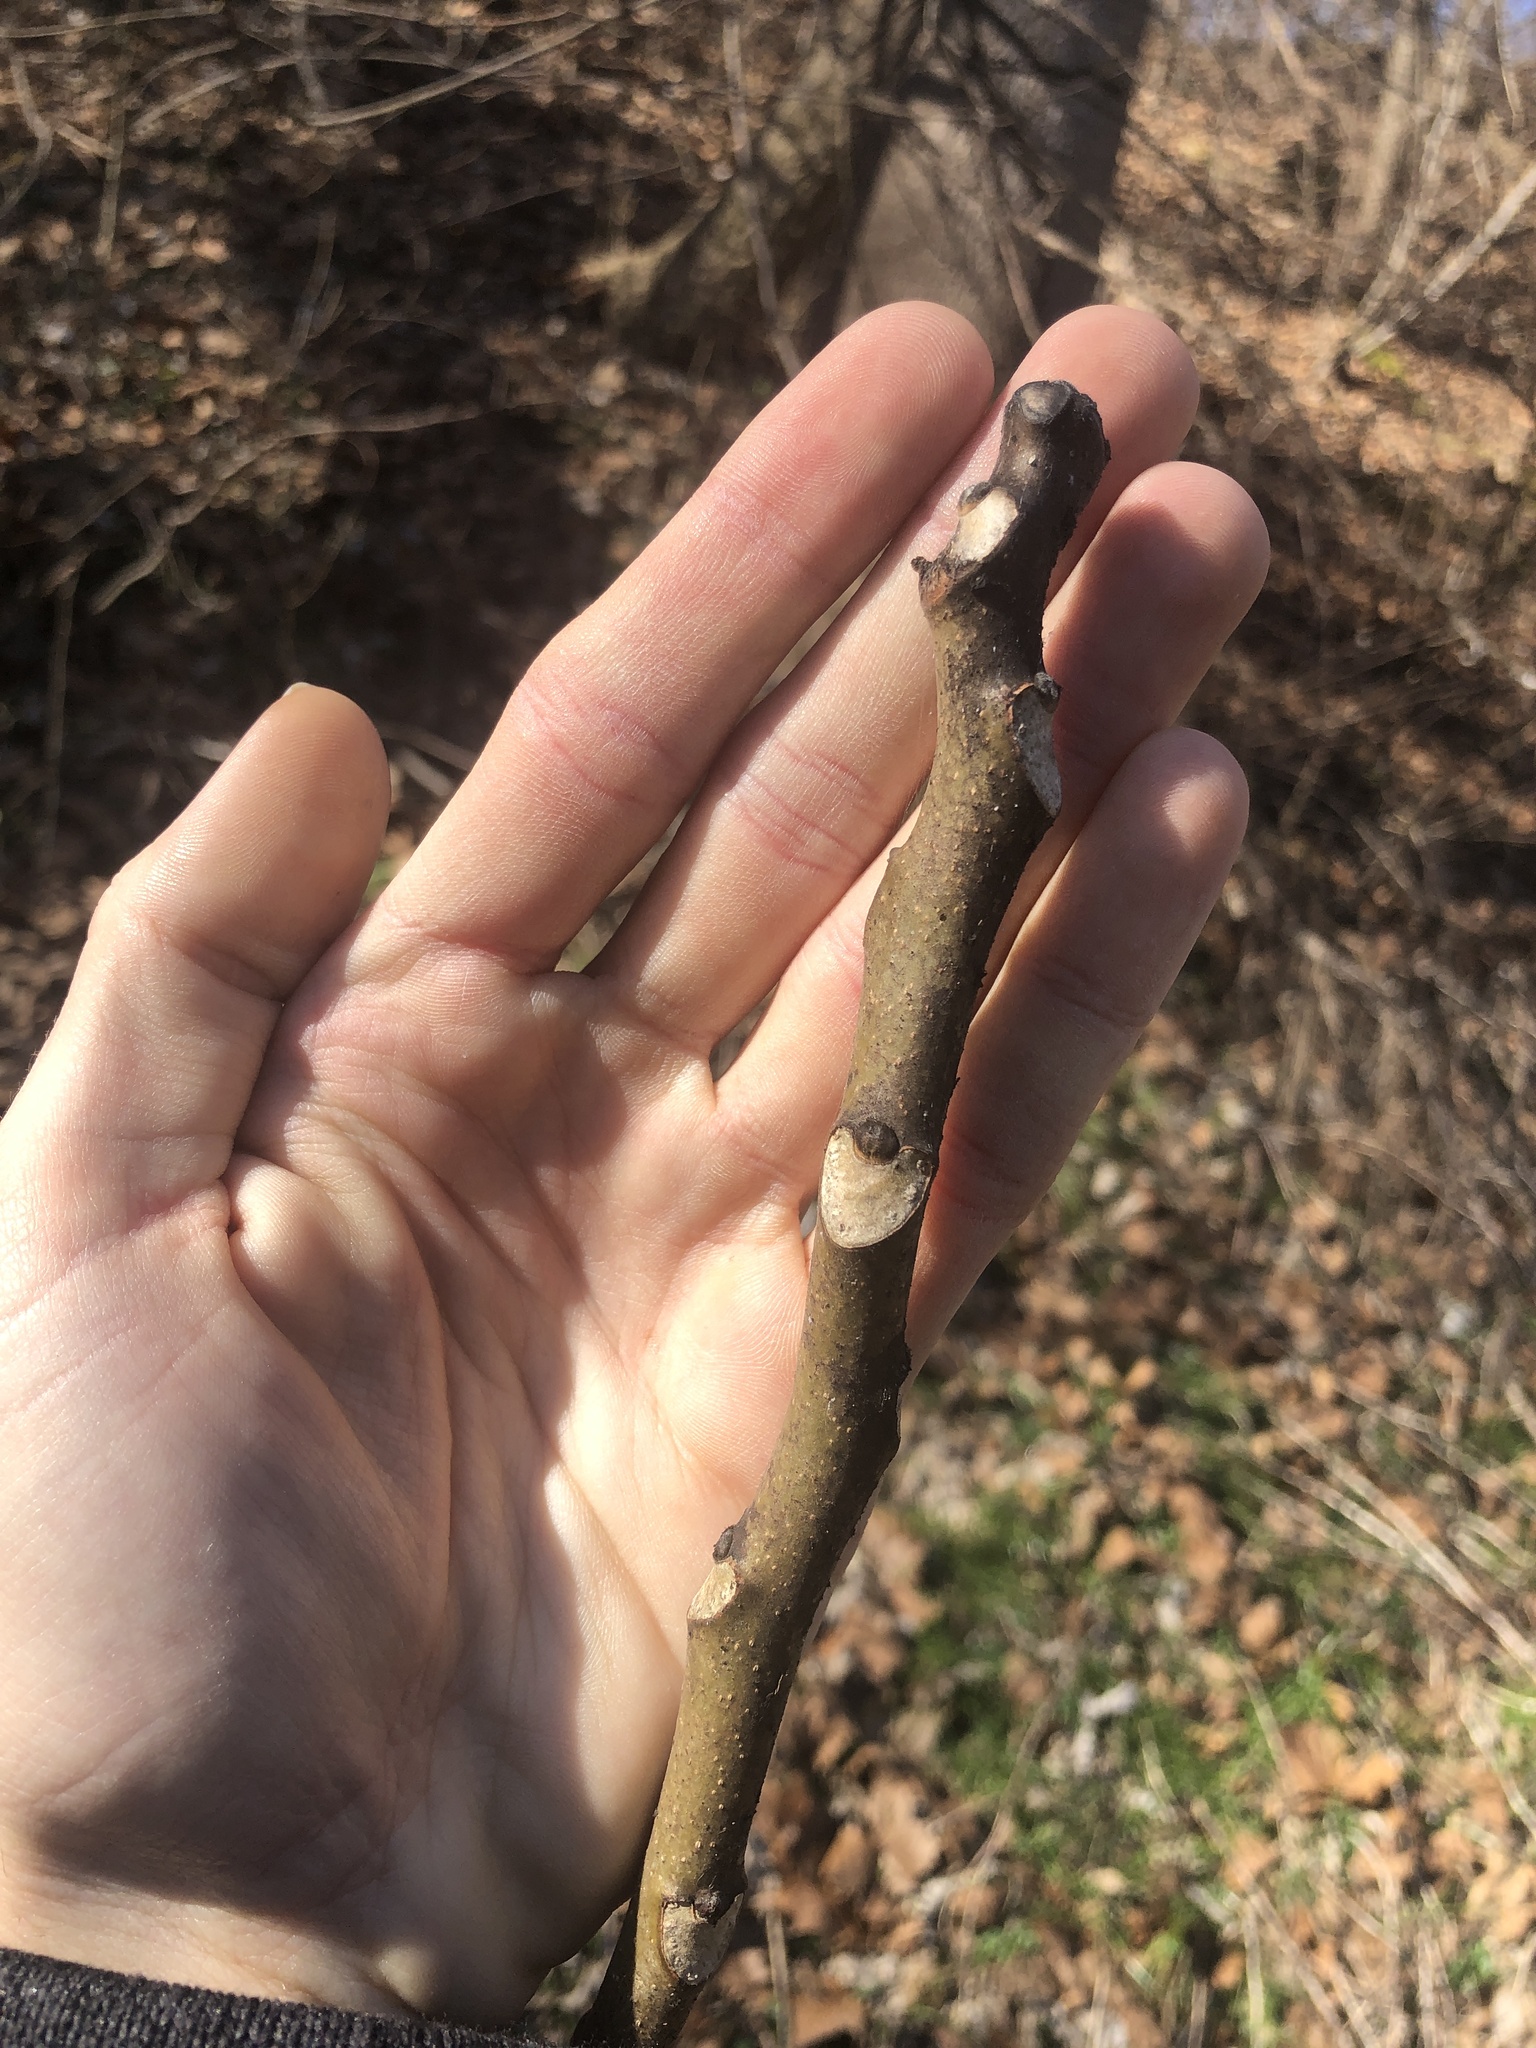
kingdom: Plantae
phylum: Tracheophyta
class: Magnoliopsida
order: Sapindales
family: Simaroubaceae
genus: Ailanthus
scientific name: Ailanthus altissima
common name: Tree-of-heaven
